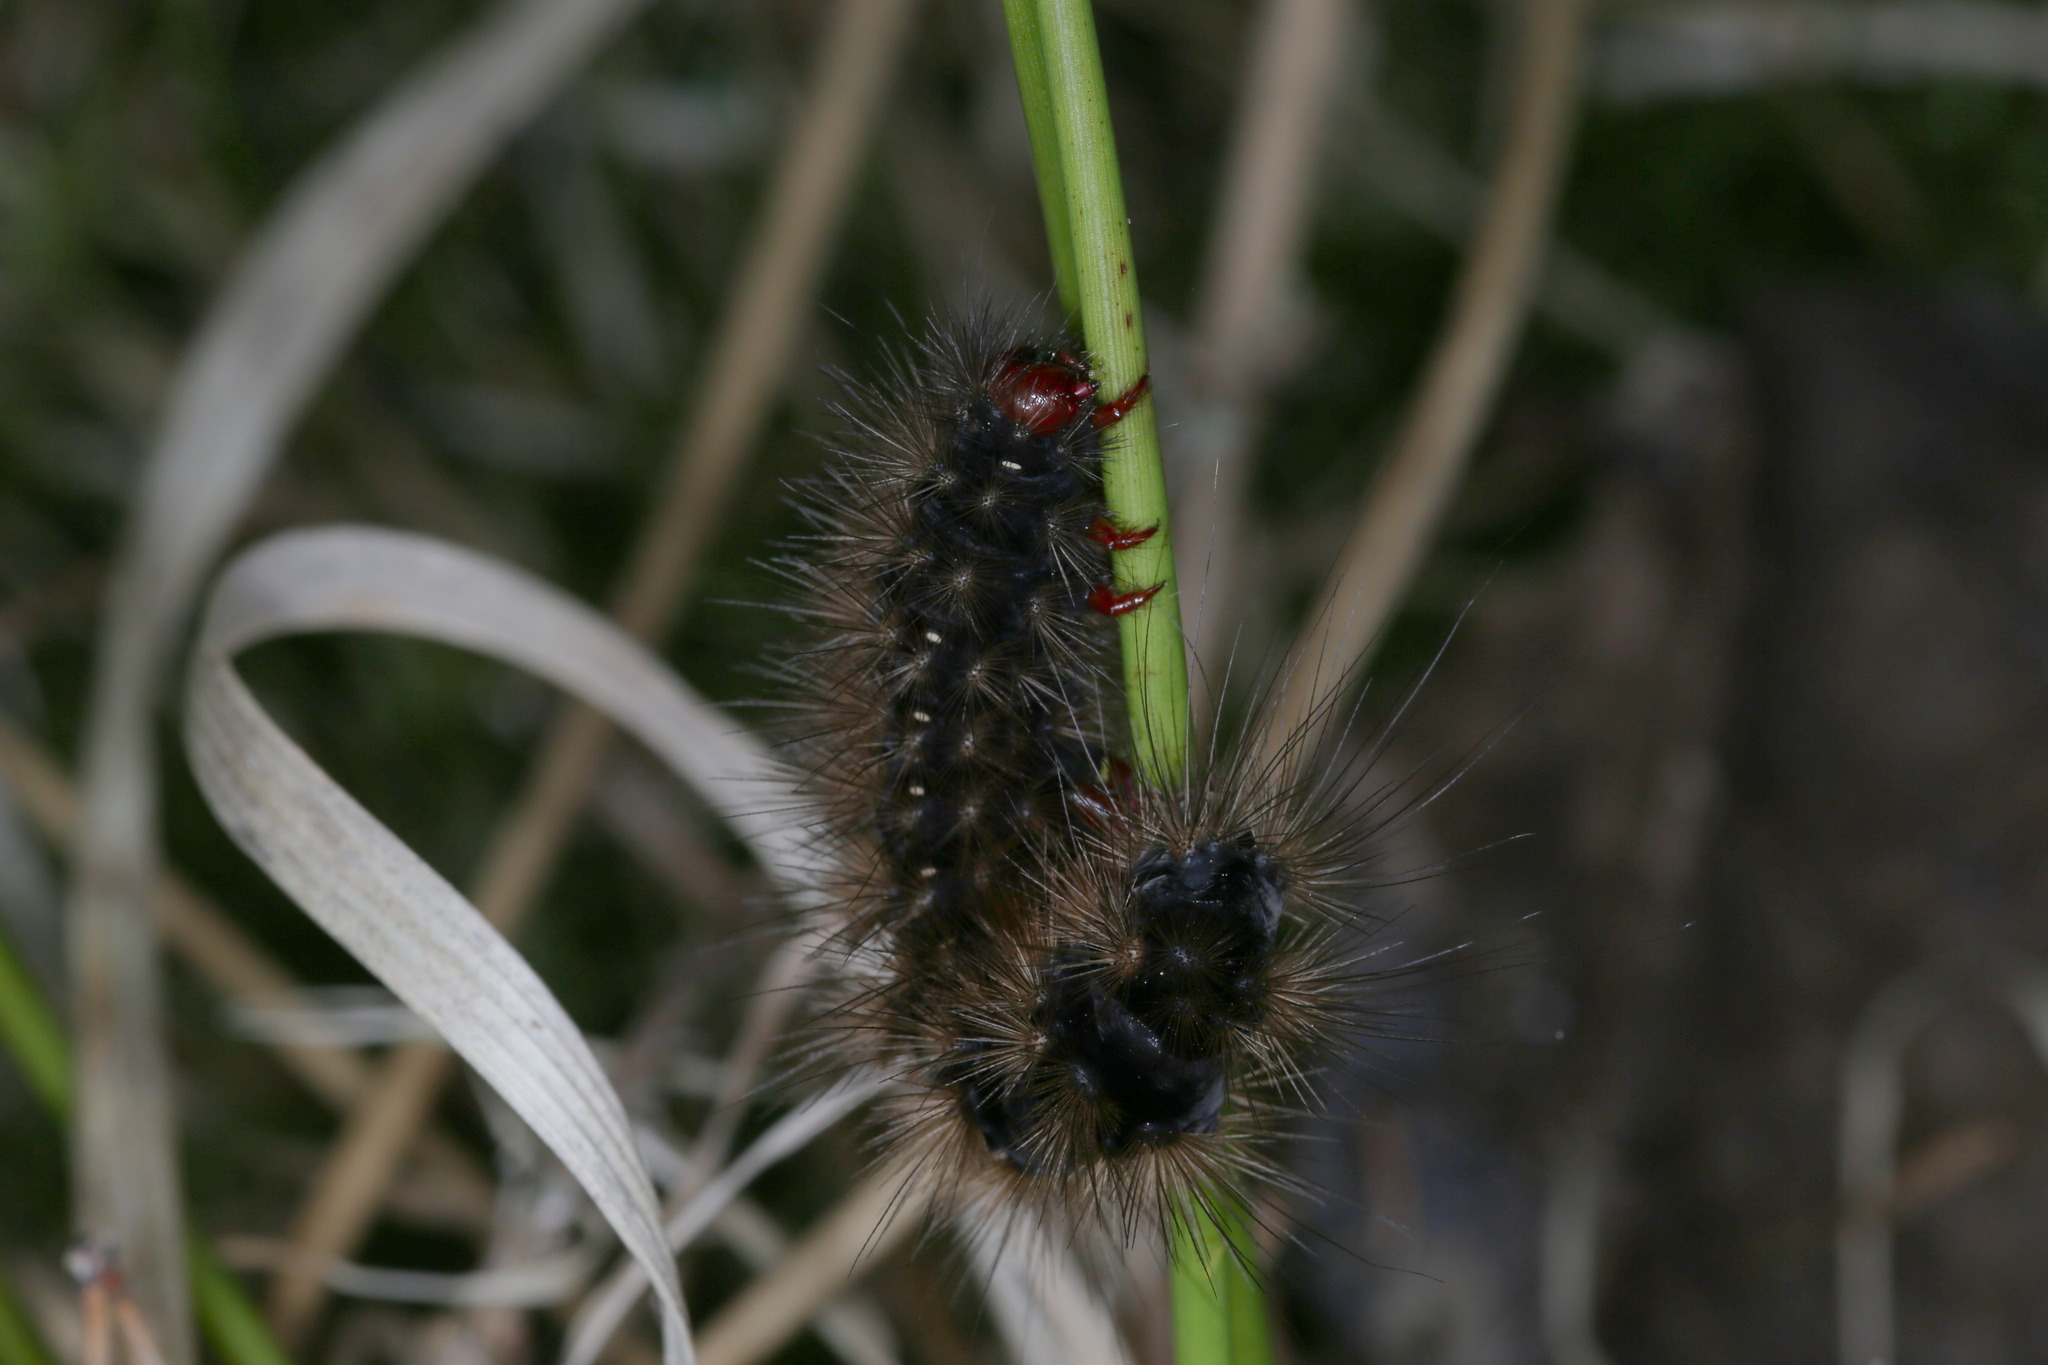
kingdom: Animalia
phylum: Arthropoda
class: Insecta
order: Lepidoptera
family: Erebidae
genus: Epicallia
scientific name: Epicallia villica
